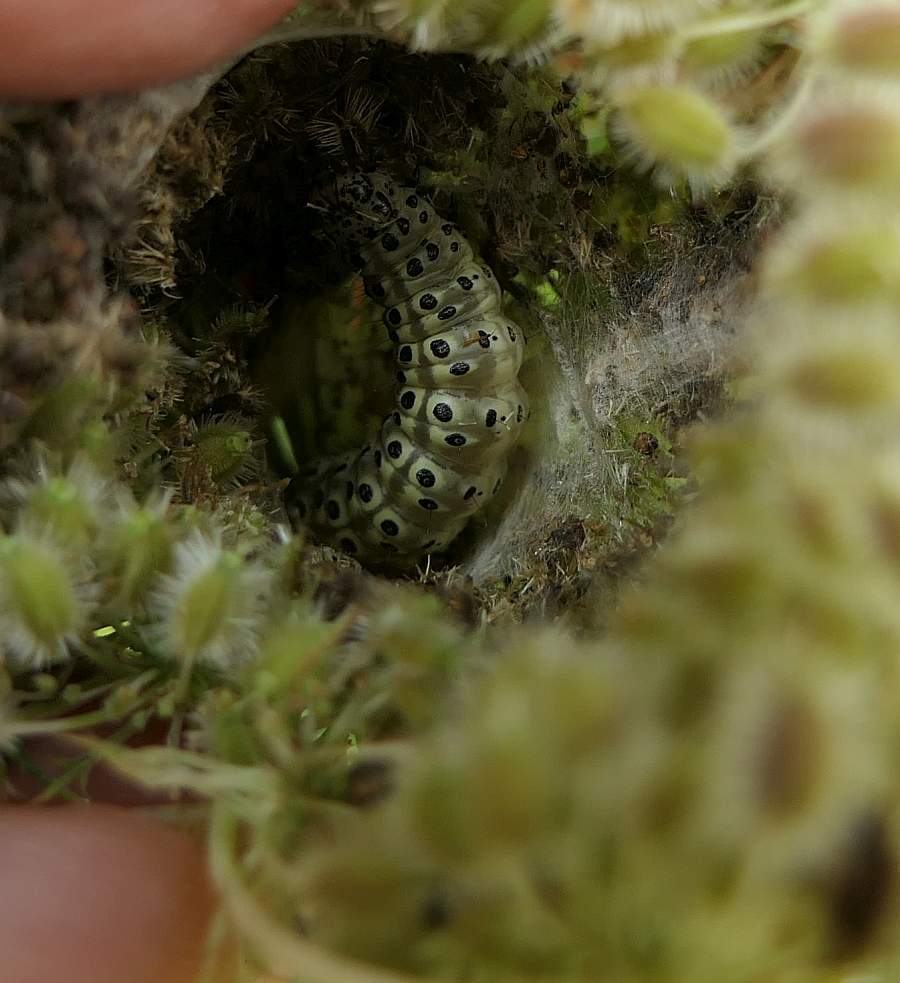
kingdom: Animalia
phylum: Arthropoda
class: Insecta
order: Lepidoptera
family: Crambidae
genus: Sitochroa
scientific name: Sitochroa palealis
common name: Greenish-yellow sitochroa moth
